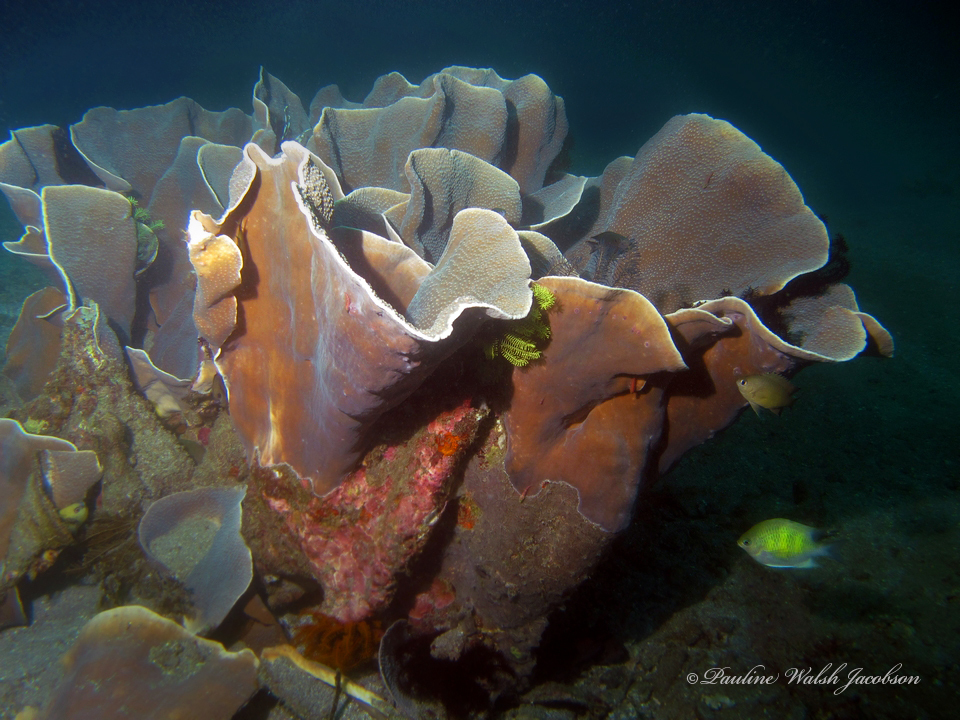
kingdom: Animalia
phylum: Chordata
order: Perciformes
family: Pomacentridae
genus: Amblyglyphidodon
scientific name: Amblyglyphidodon curacao
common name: Staghorn damsel
